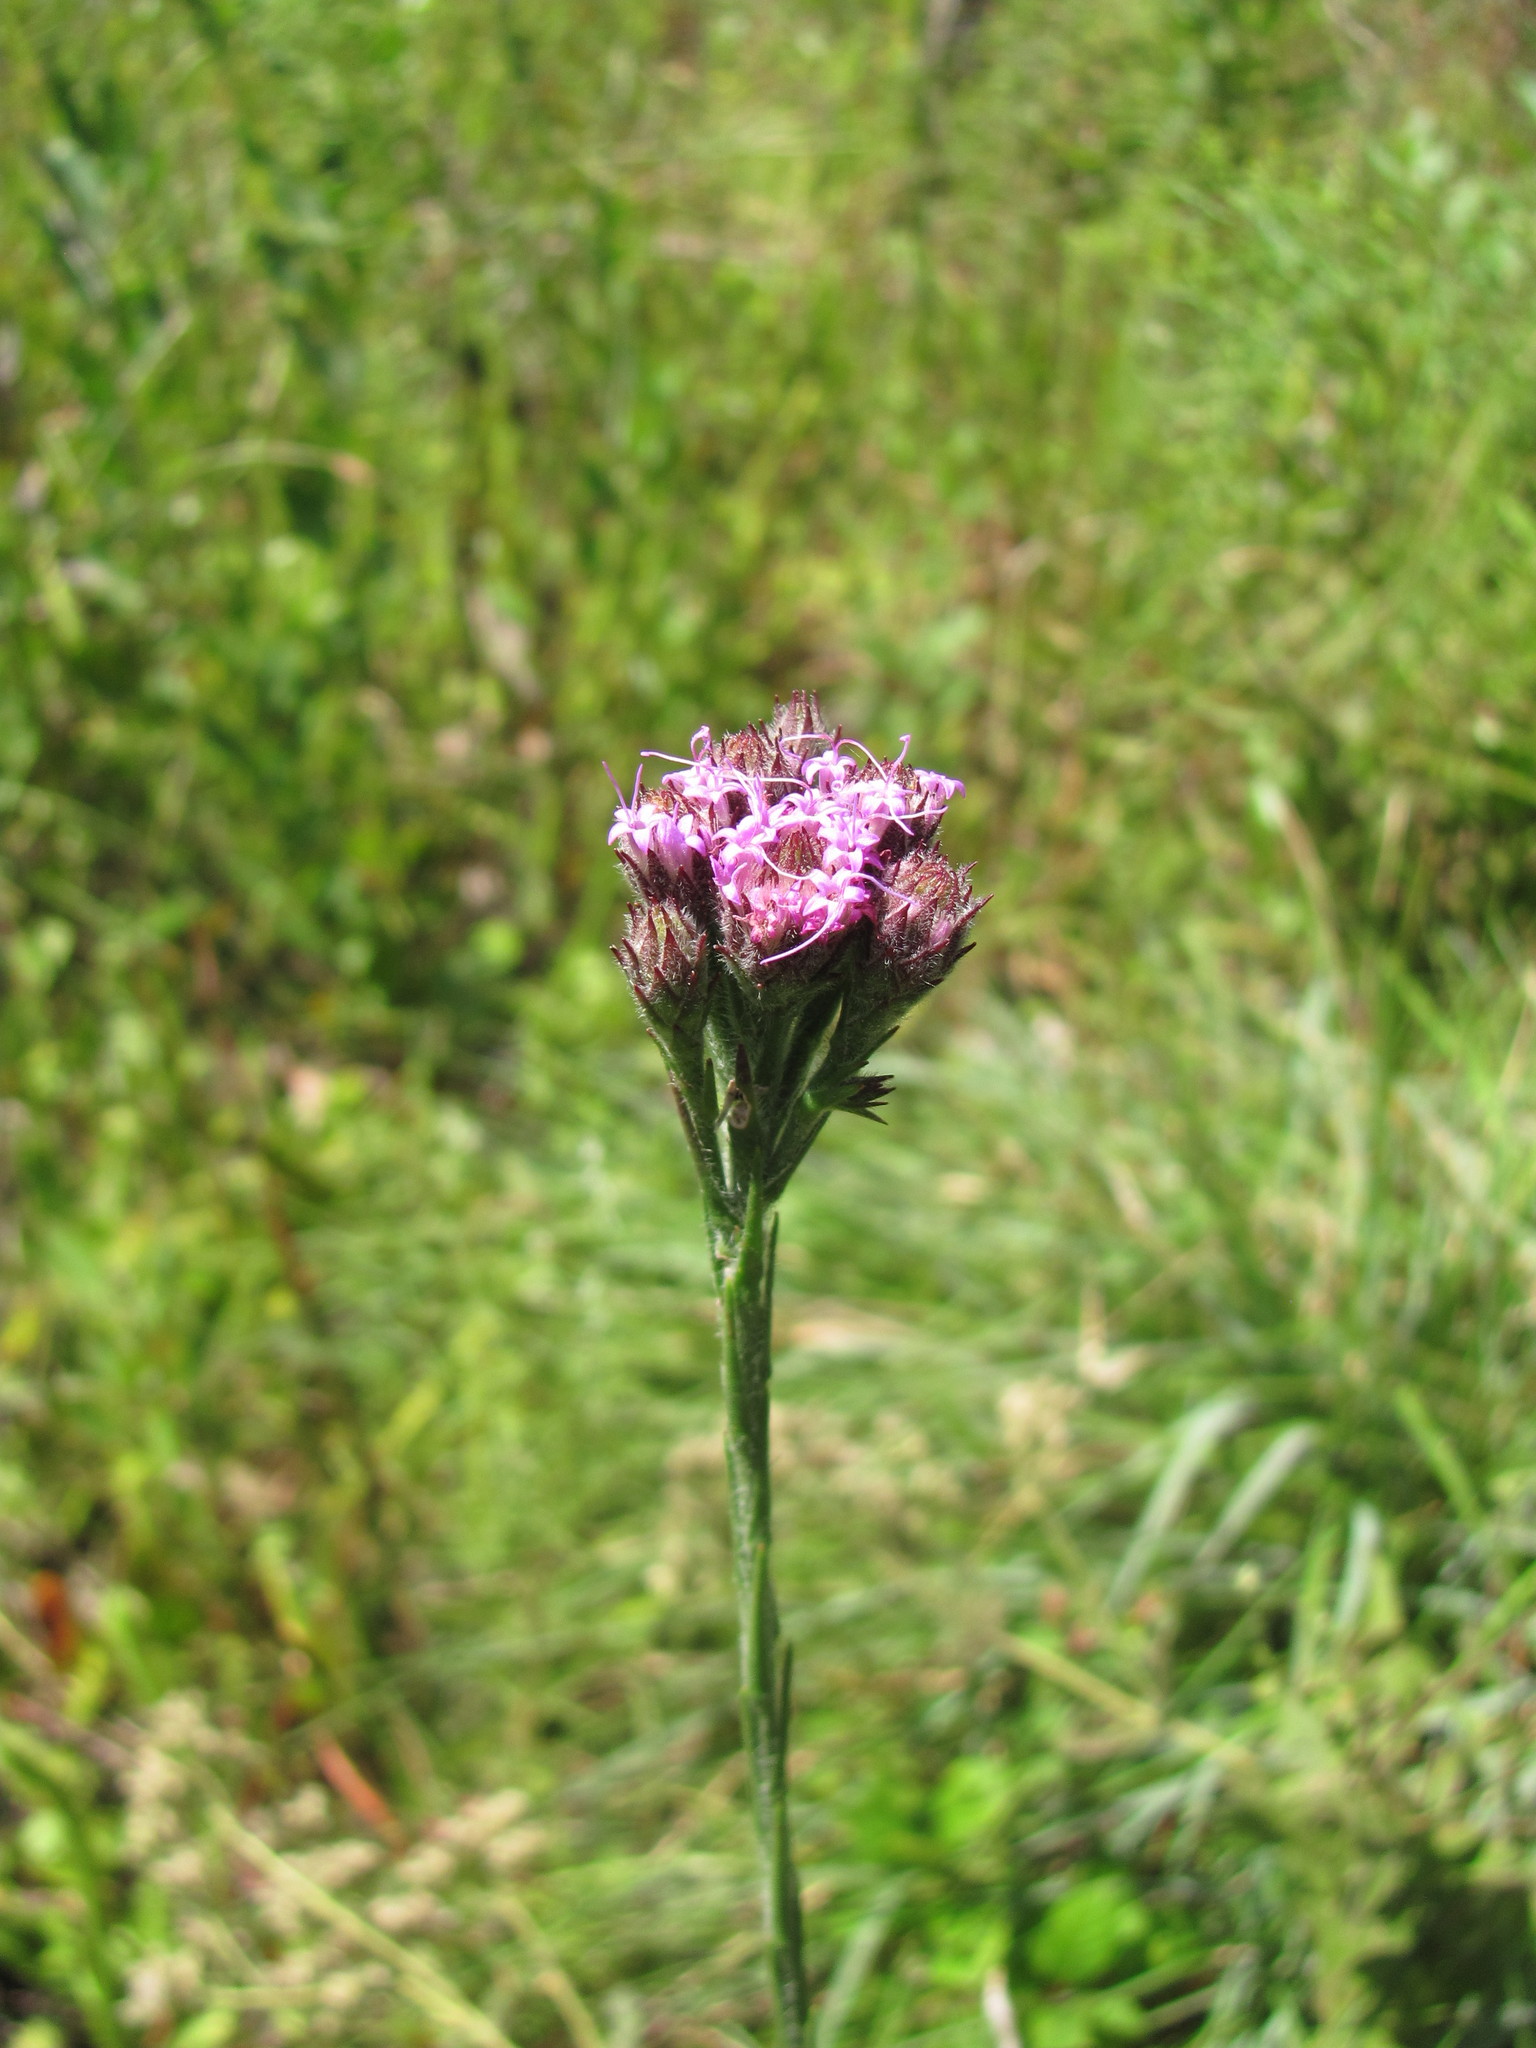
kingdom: Plantae
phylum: Tracheophyta
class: Magnoliopsida
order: Asterales
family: Asteraceae
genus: Carphephorus
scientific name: Carphephorus pseudoliatris
